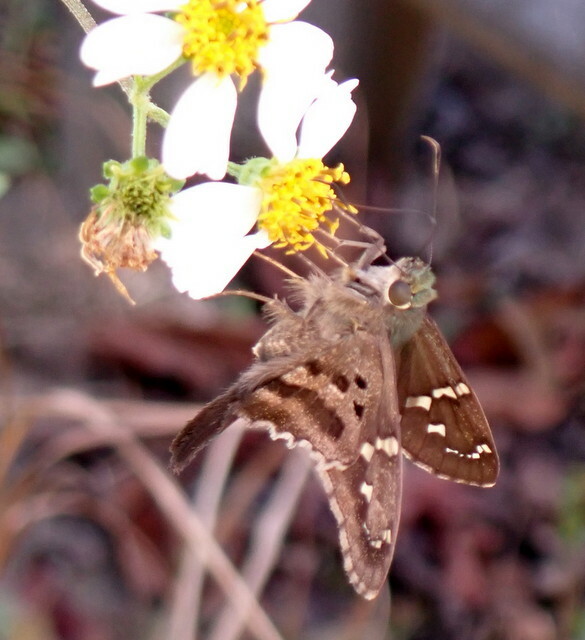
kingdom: Animalia
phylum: Arthropoda
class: Insecta
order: Lepidoptera
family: Hesperiidae
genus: Urbanus
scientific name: Urbanus proteus
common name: Long-tailed skipper
